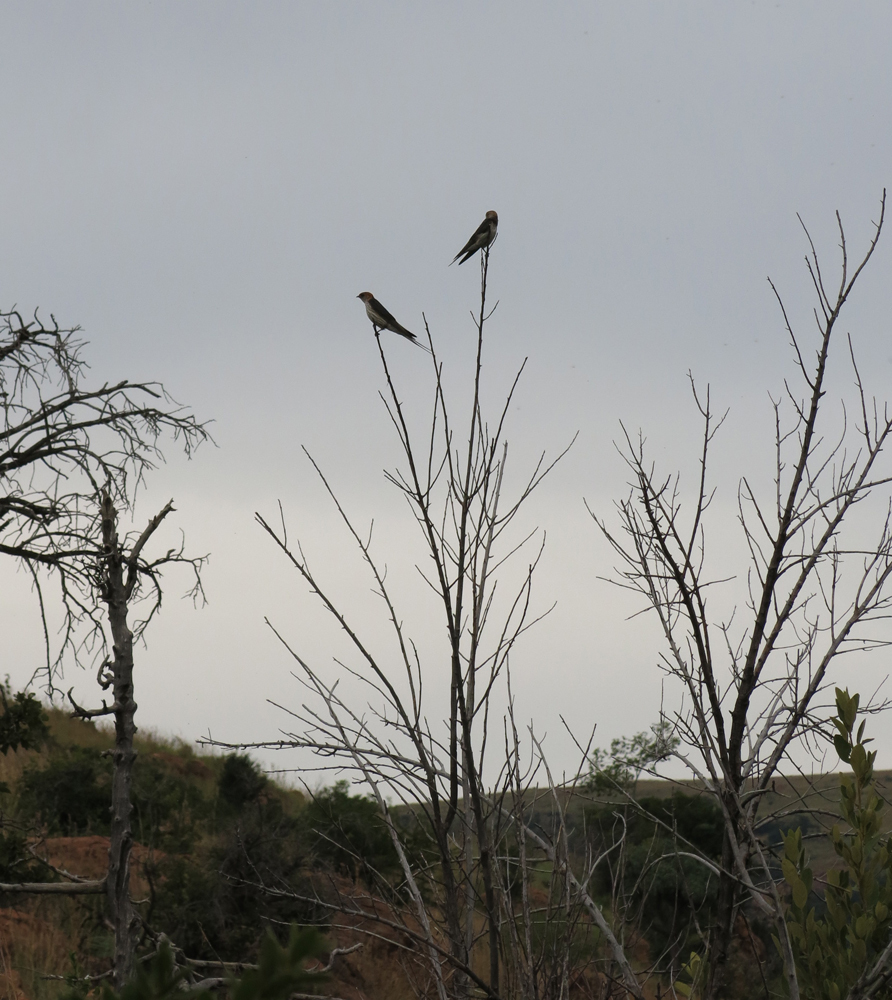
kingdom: Animalia
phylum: Chordata
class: Aves
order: Passeriformes
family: Hirundinidae
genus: Cecropis
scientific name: Cecropis cucullata
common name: Greater striped-swallow
